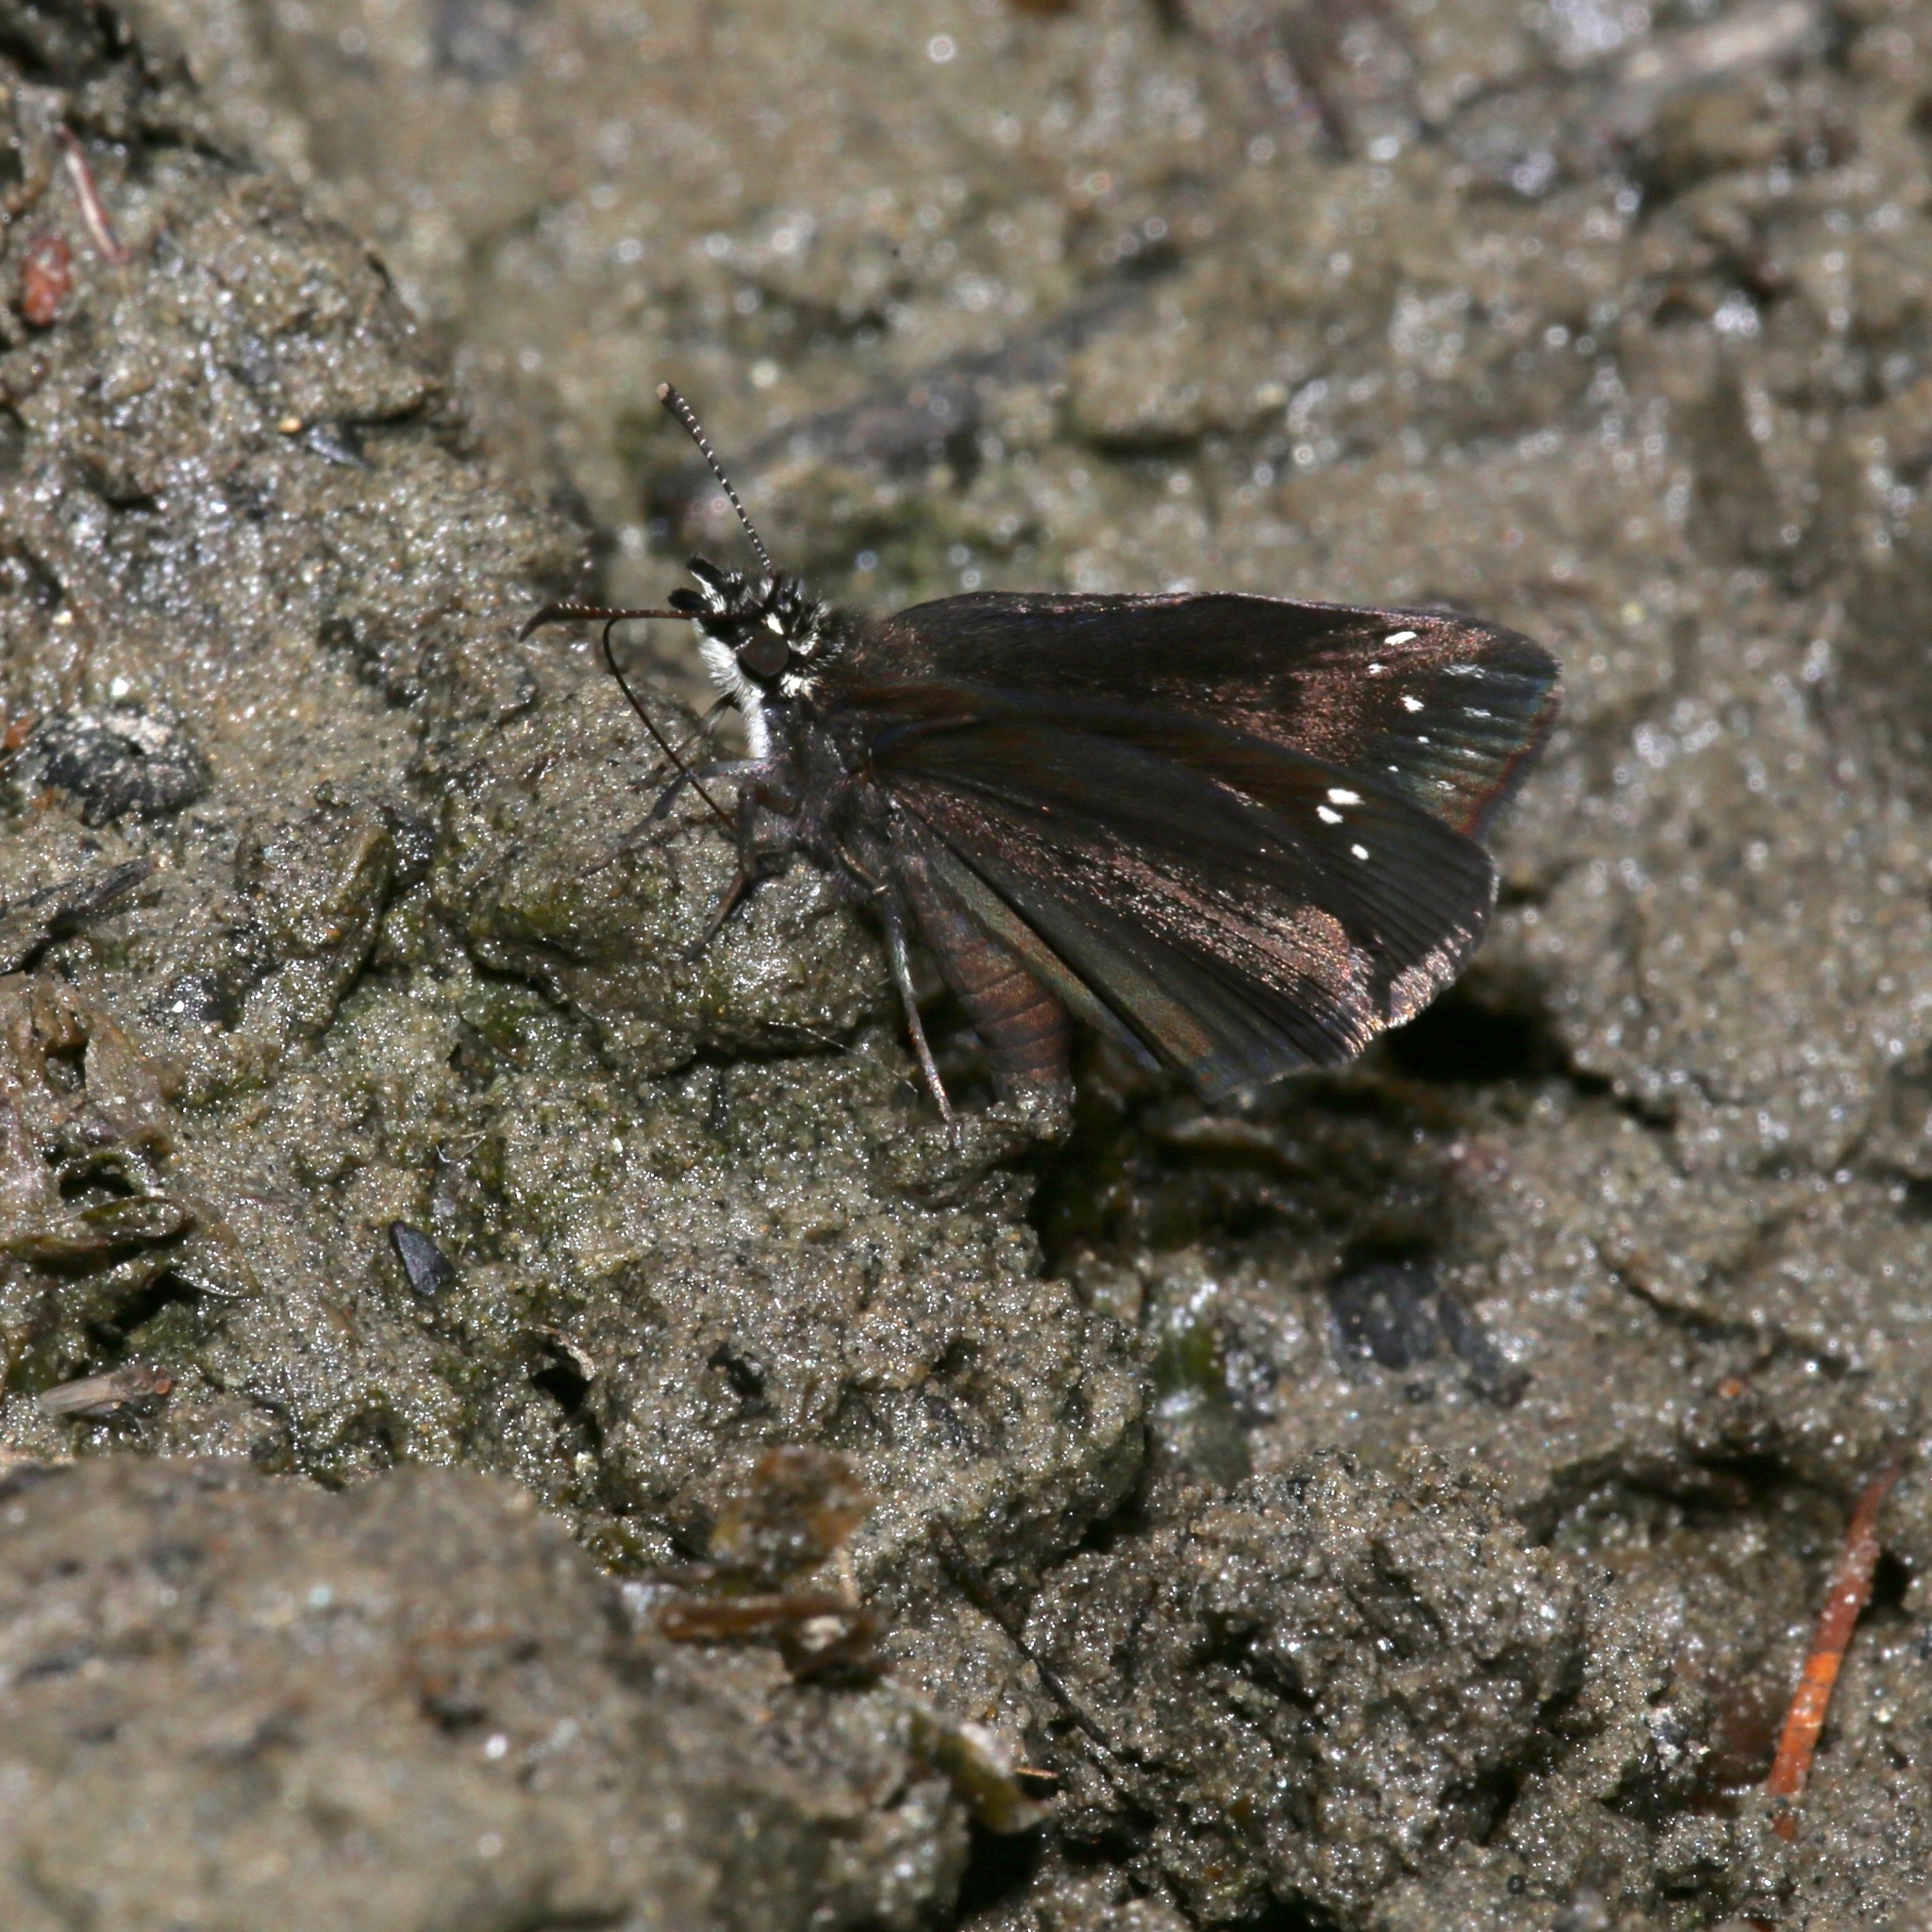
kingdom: Animalia
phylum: Arthropoda
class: Insecta
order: Lepidoptera
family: Hesperiidae
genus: Pholisora
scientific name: Pholisora catullus
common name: Common sootywing
